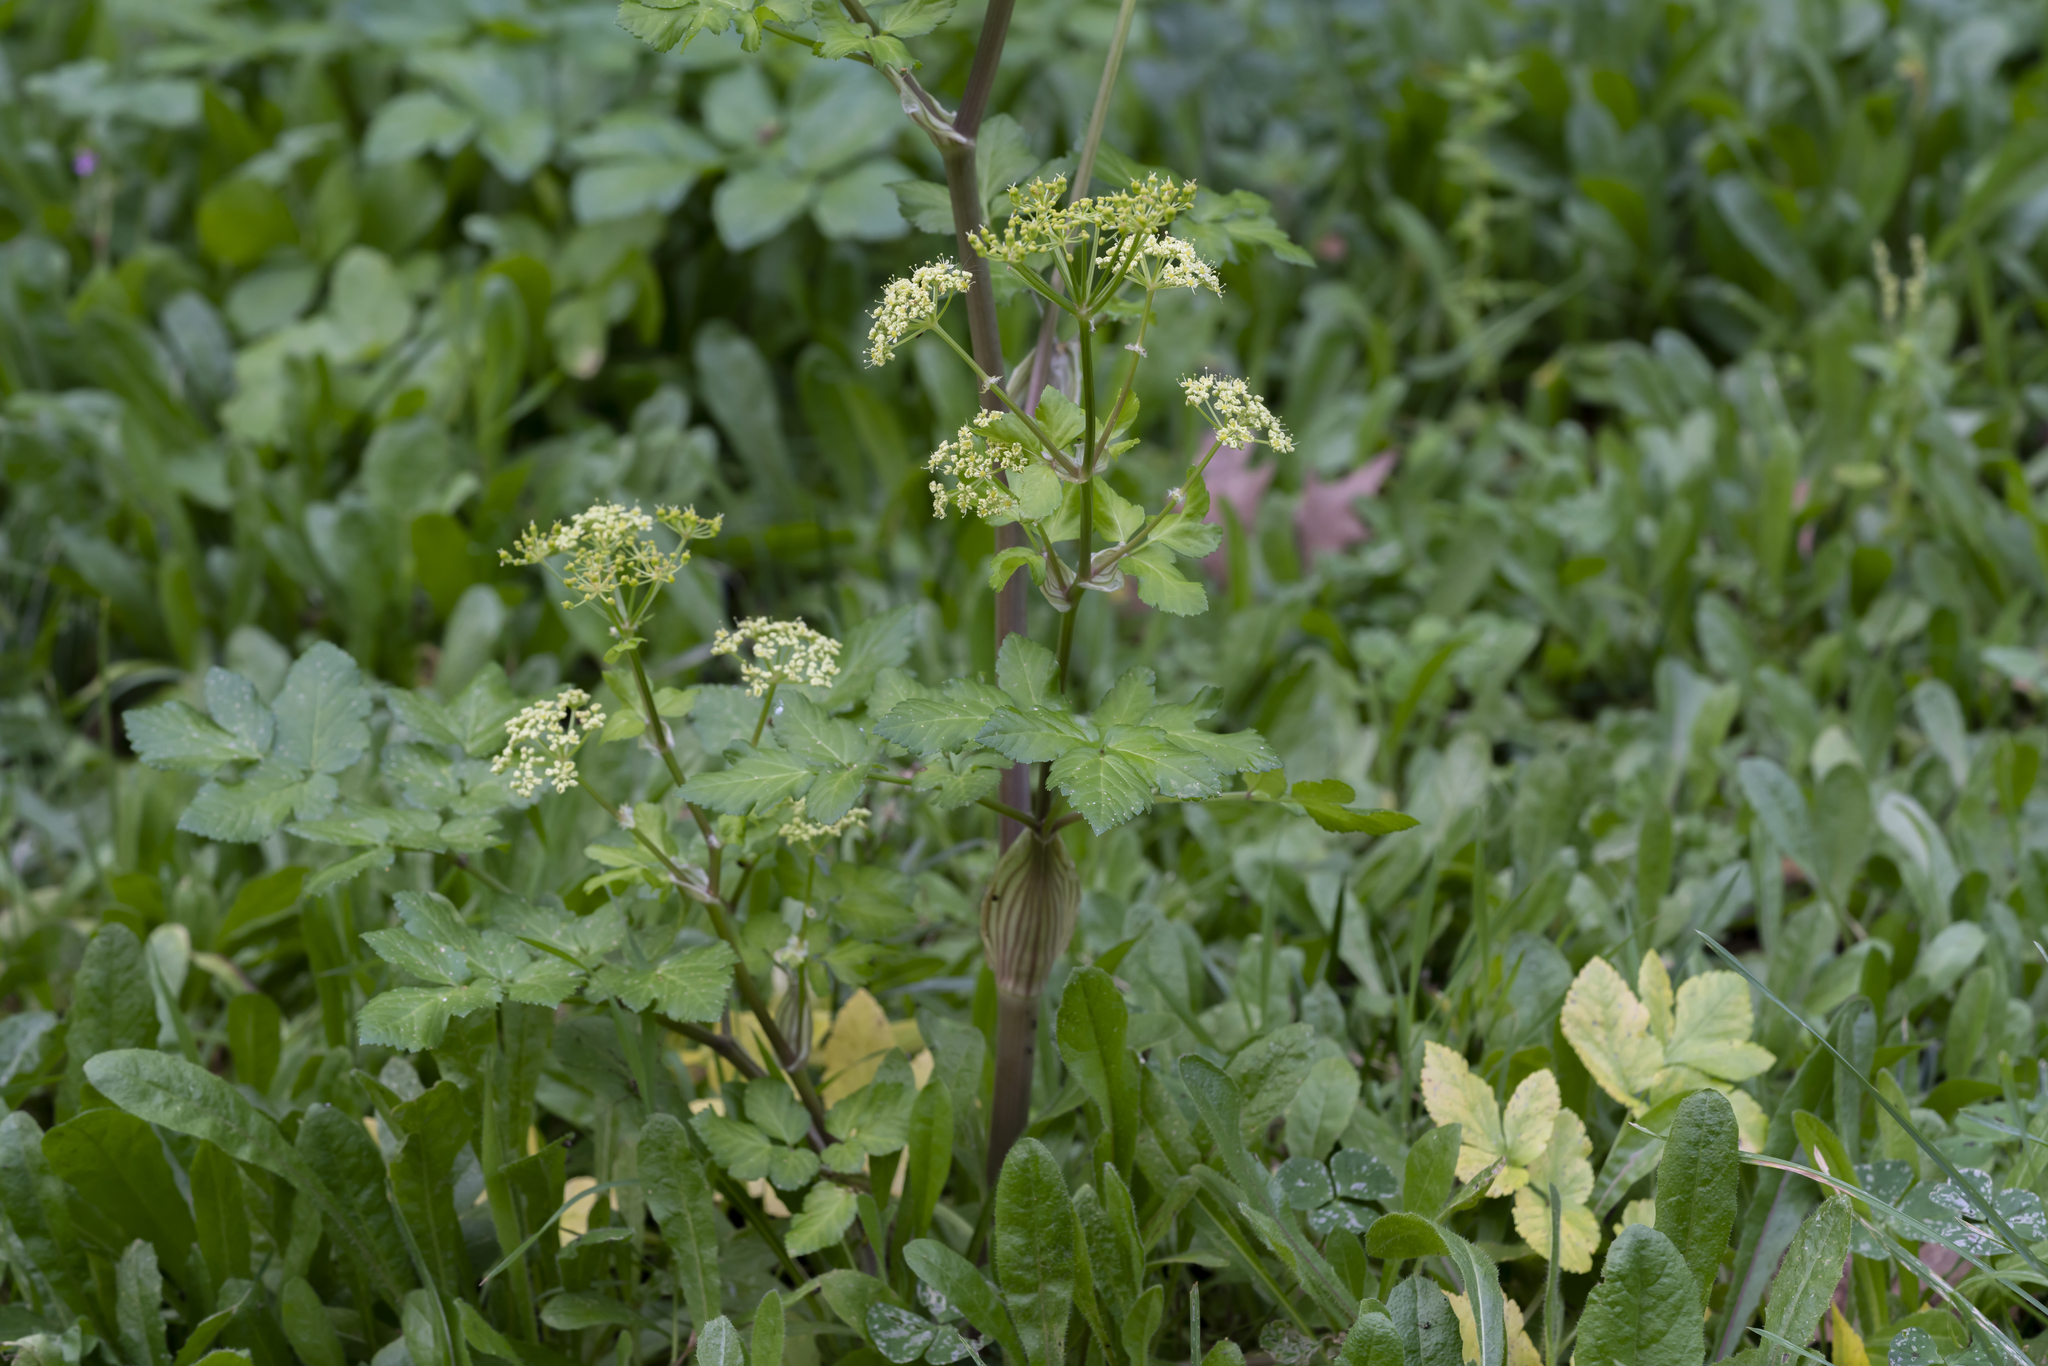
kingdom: Plantae
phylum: Tracheophyta
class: Magnoliopsida
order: Apiales
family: Apiaceae
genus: Smyrnium
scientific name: Smyrnium olusatrum
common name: Alexanders
